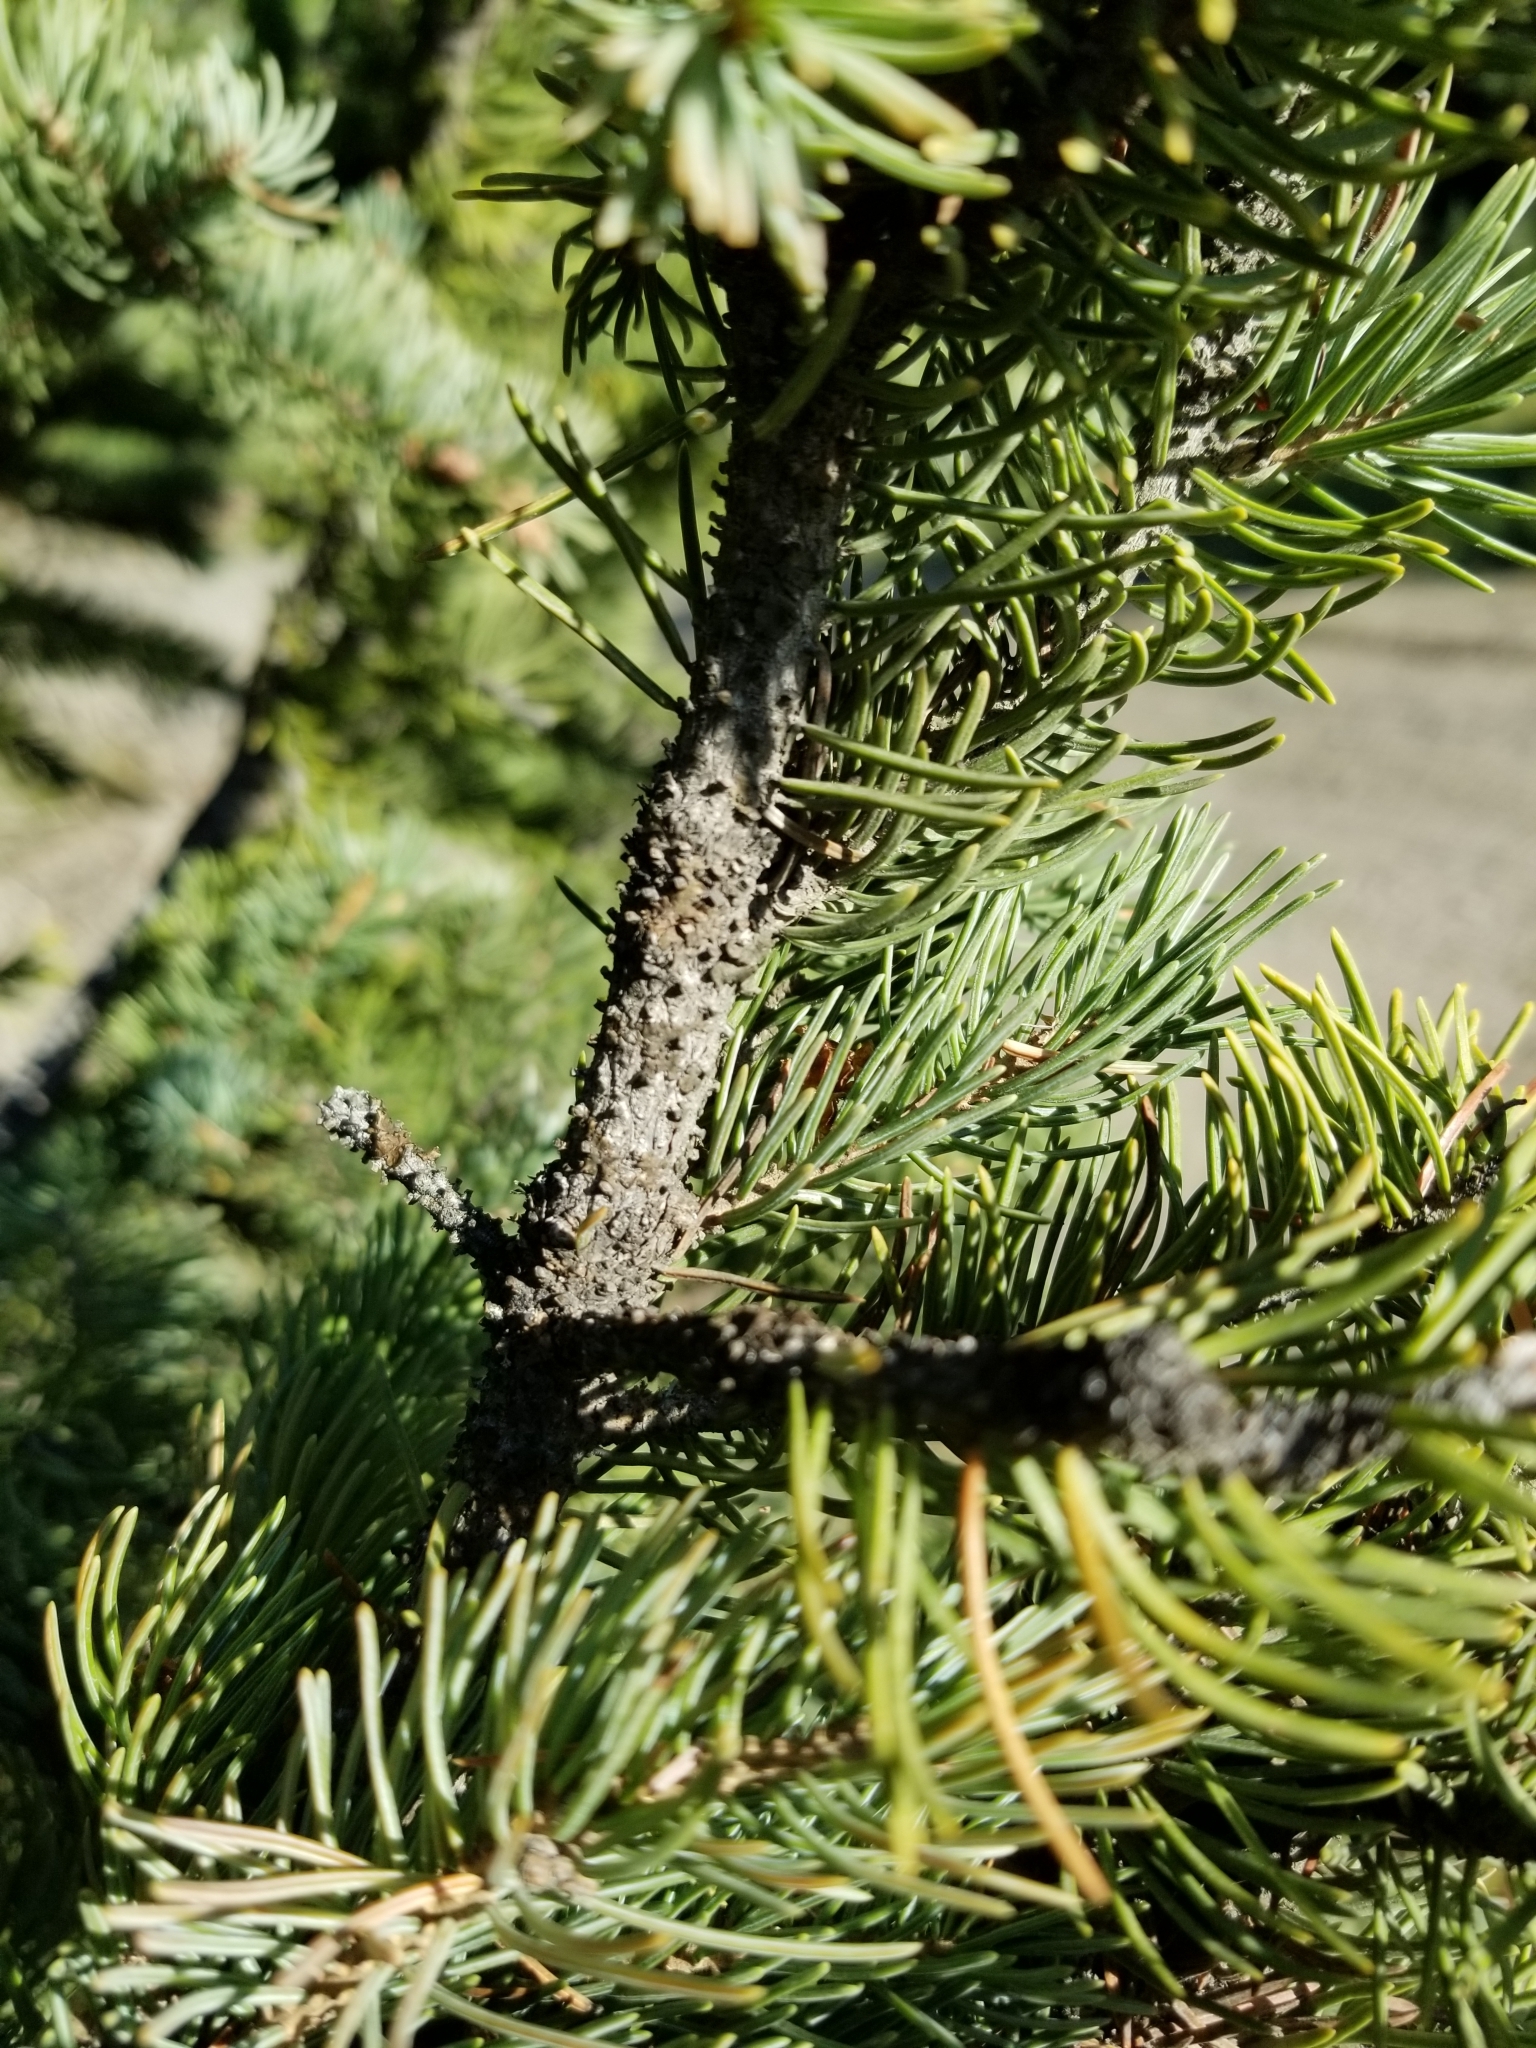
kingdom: Plantae
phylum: Tracheophyta
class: Pinopsida
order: Pinales
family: Pinaceae
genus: Picea
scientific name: Picea pungens
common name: Colorado spruce
